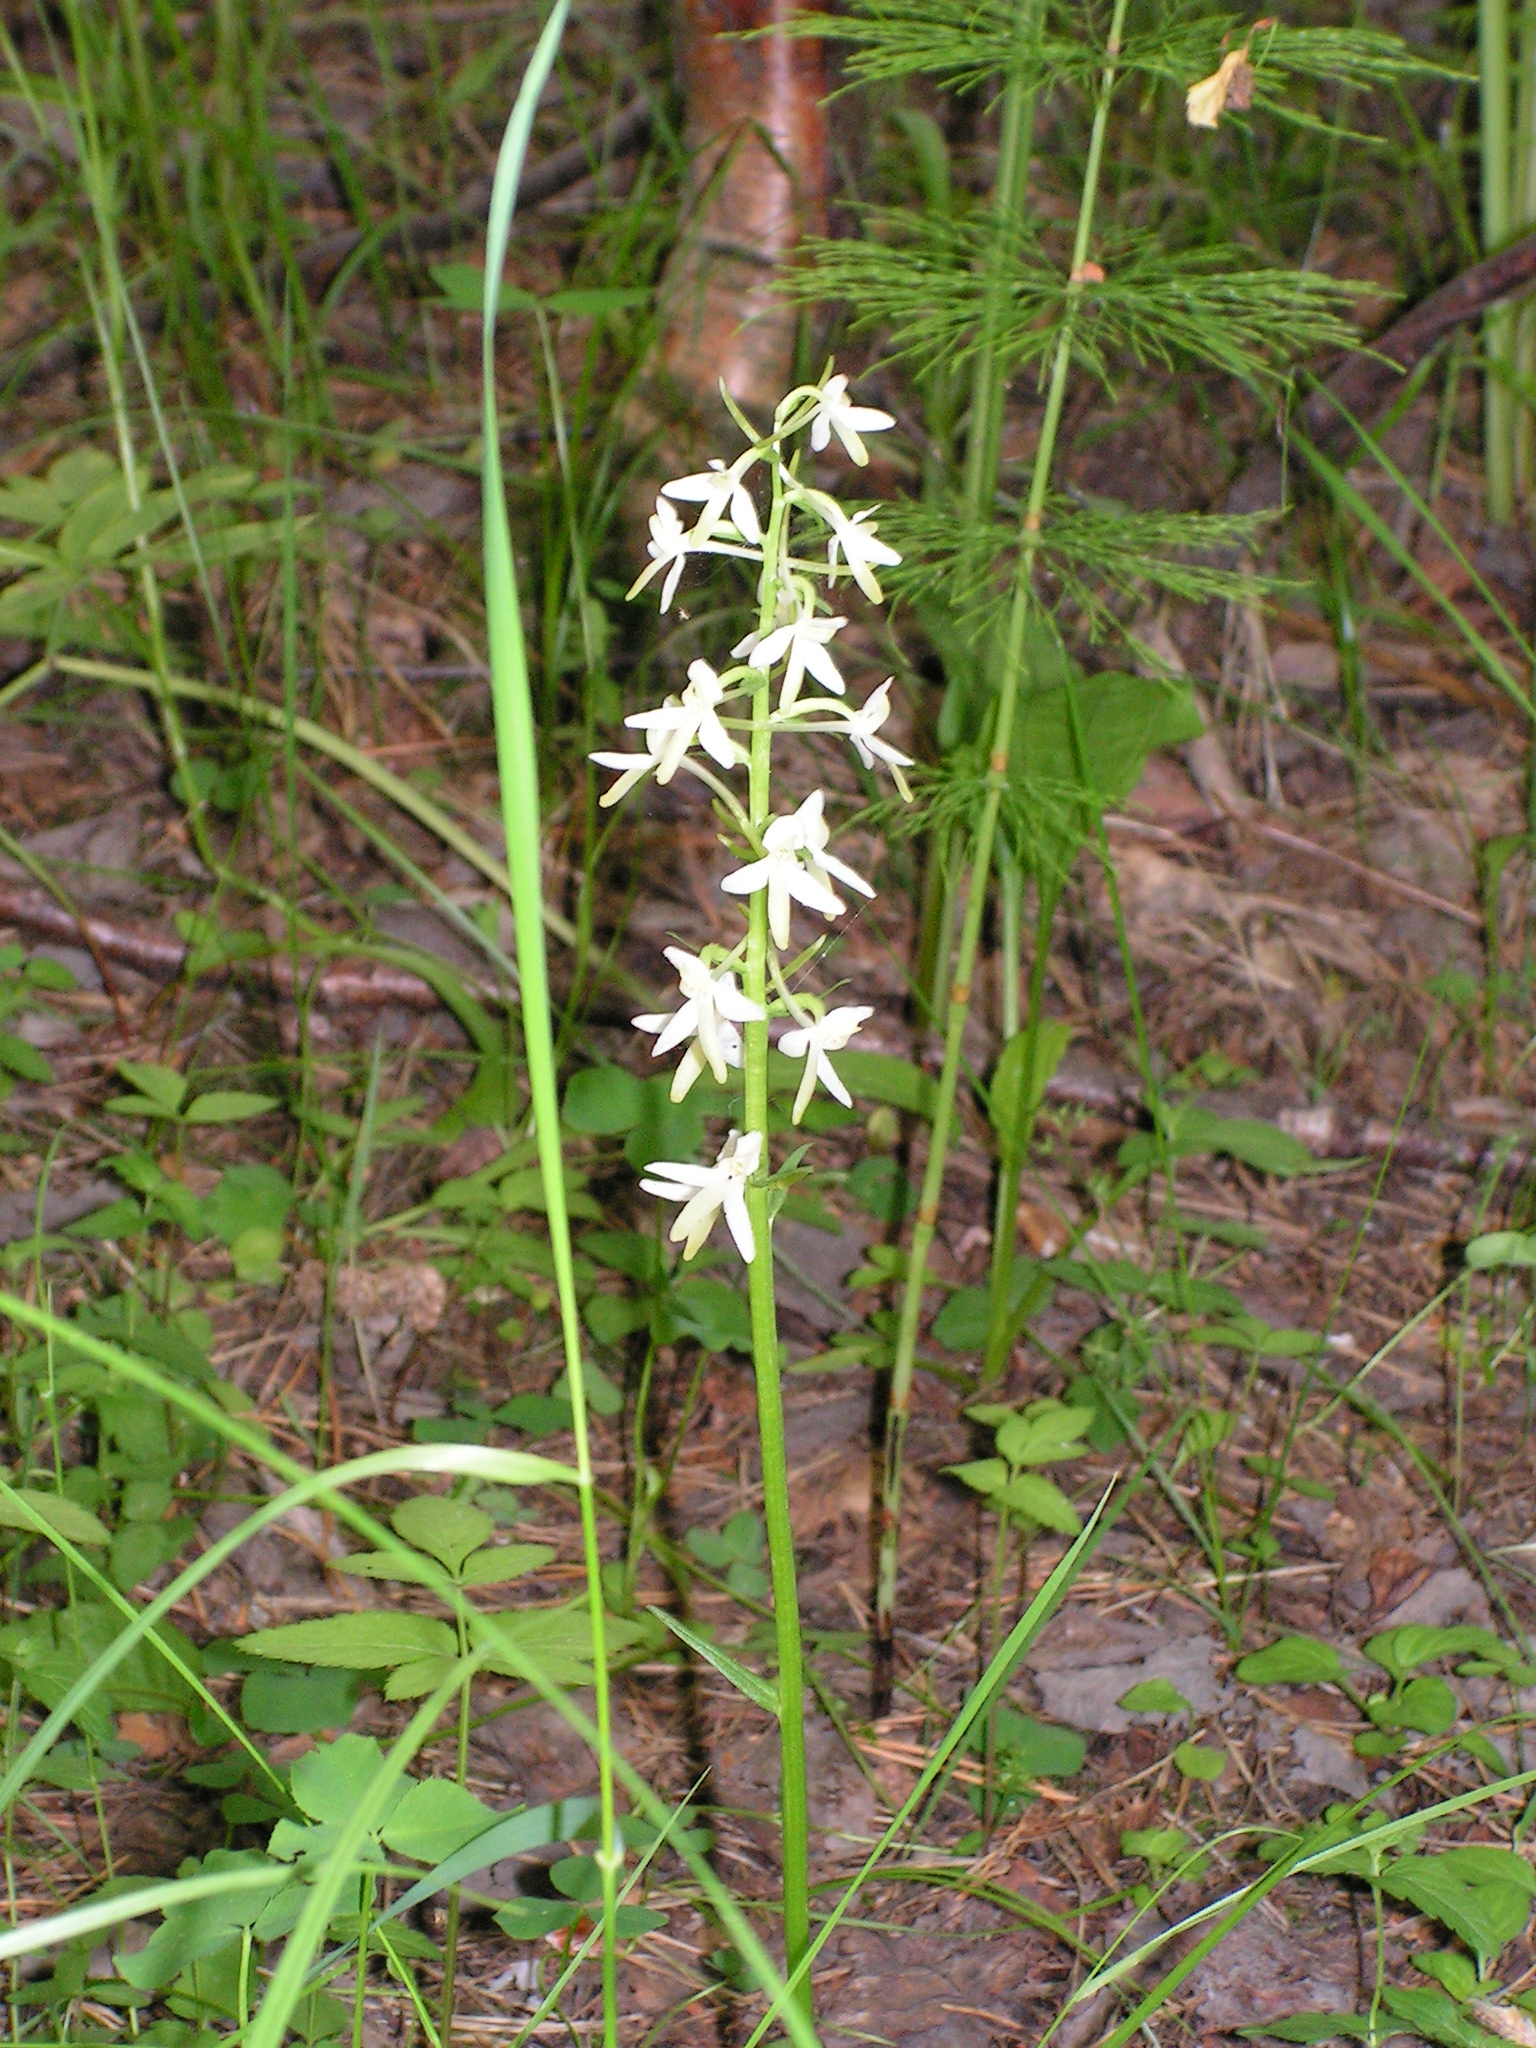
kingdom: Plantae
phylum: Tracheophyta
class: Liliopsida
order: Asparagales
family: Orchidaceae
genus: Platanthera
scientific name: Platanthera bifolia
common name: Lesser butterfly-orchid
